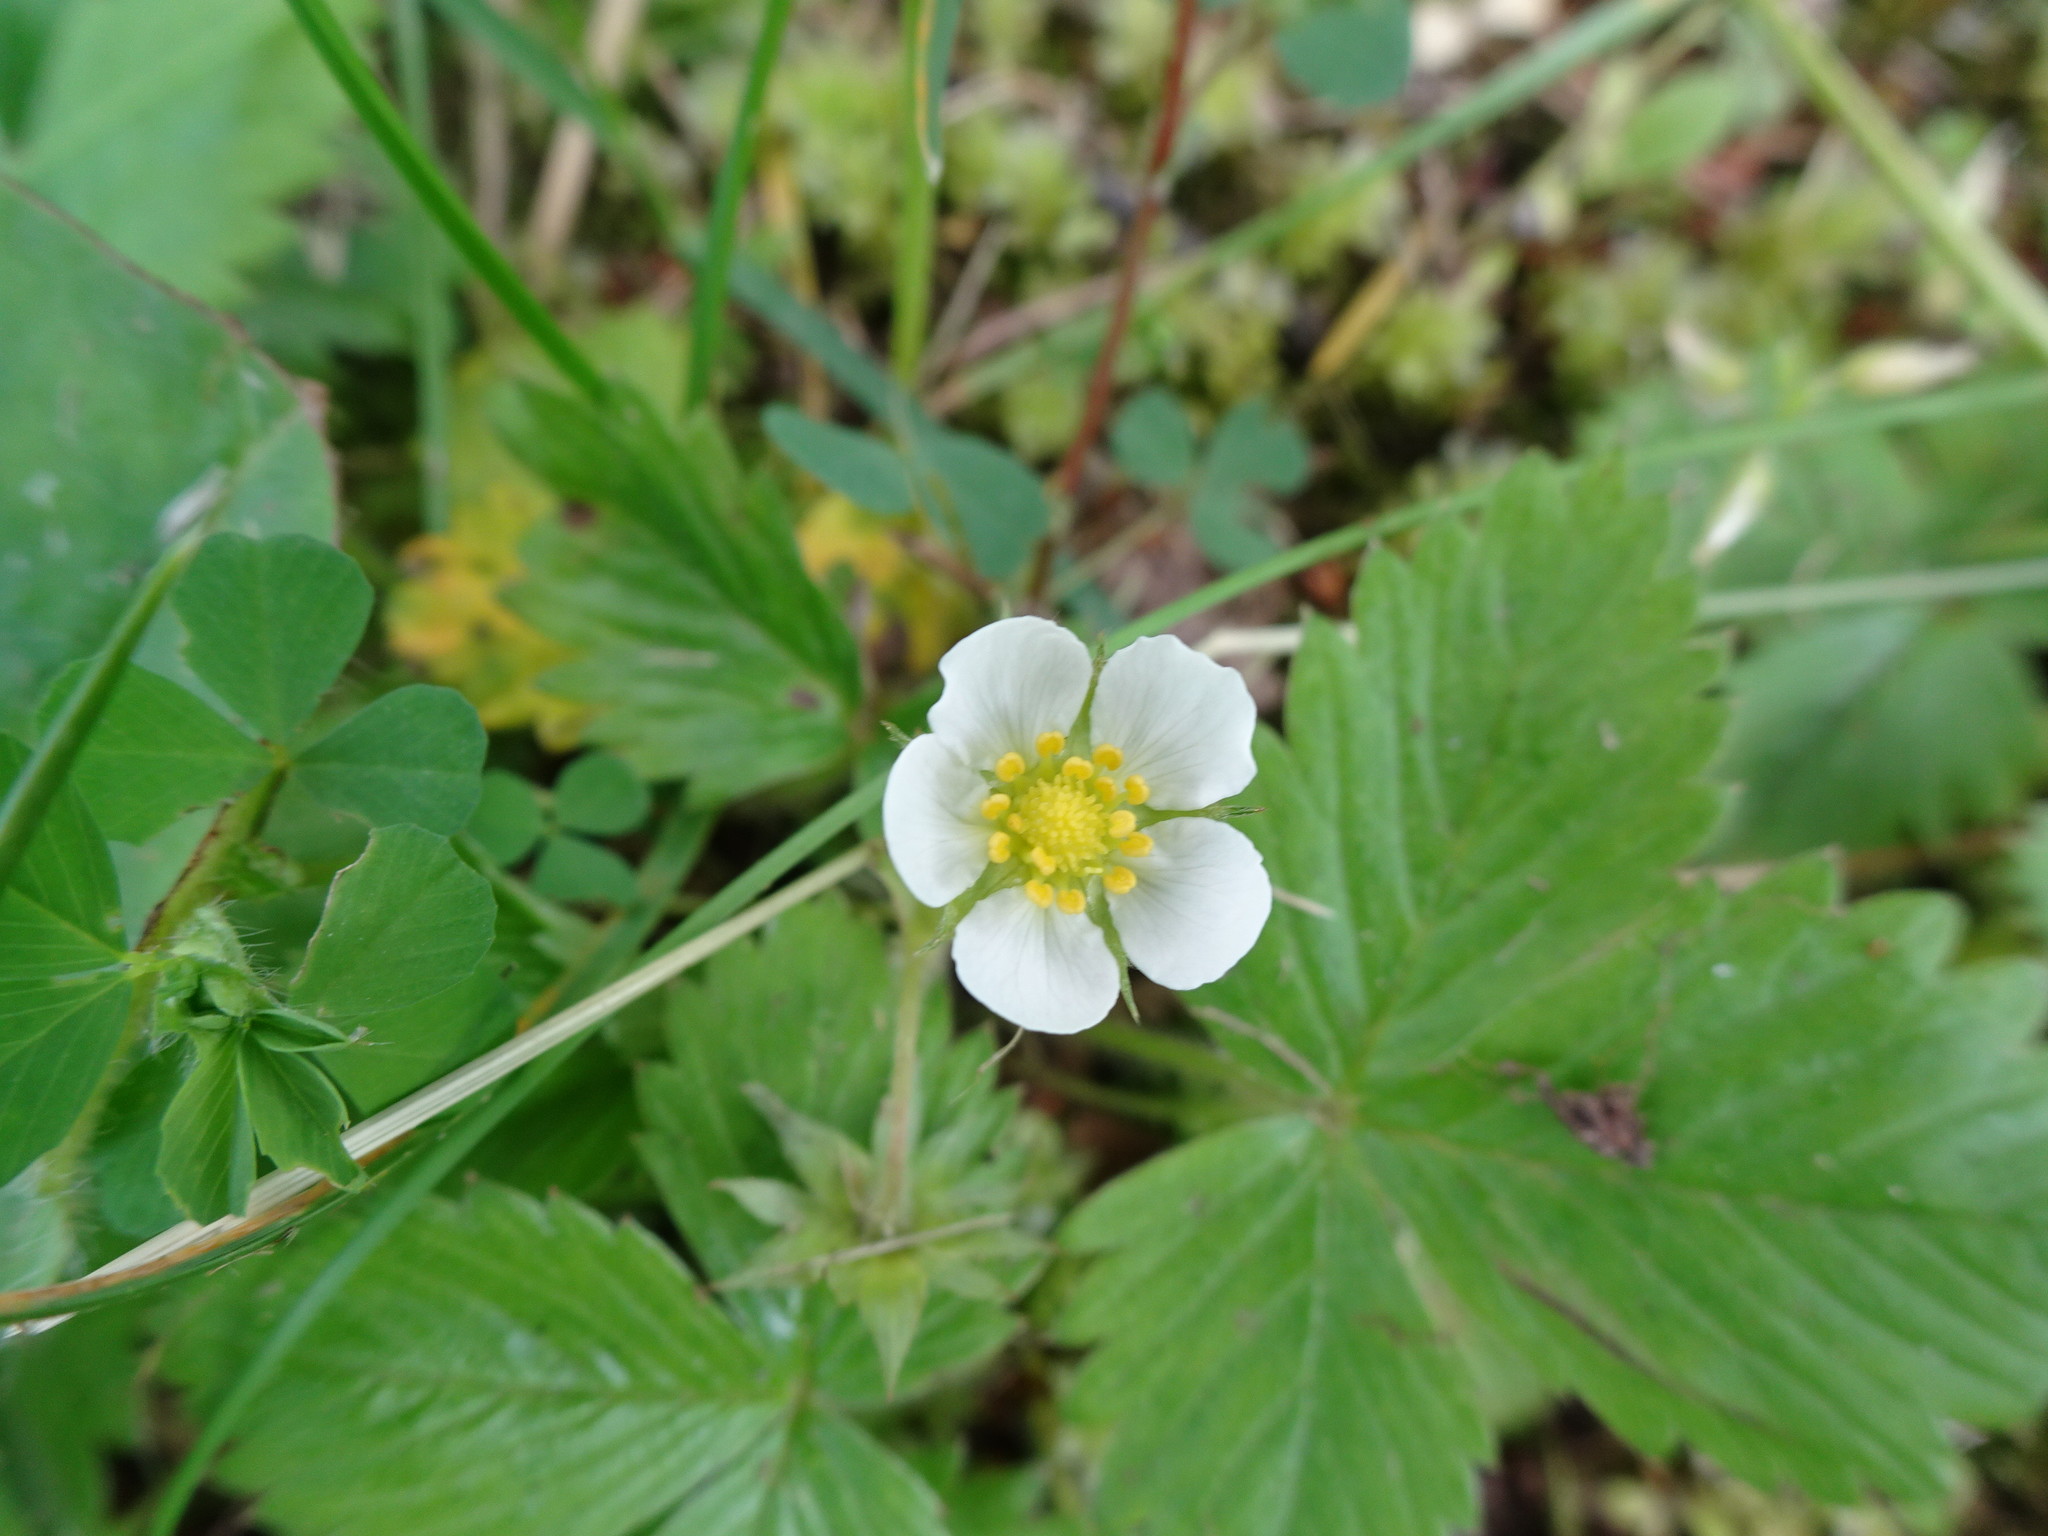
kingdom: Plantae
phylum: Tracheophyta
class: Magnoliopsida
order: Rosales
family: Rosaceae
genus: Fragaria
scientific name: Fragaria vesca
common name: Wild strawberry
